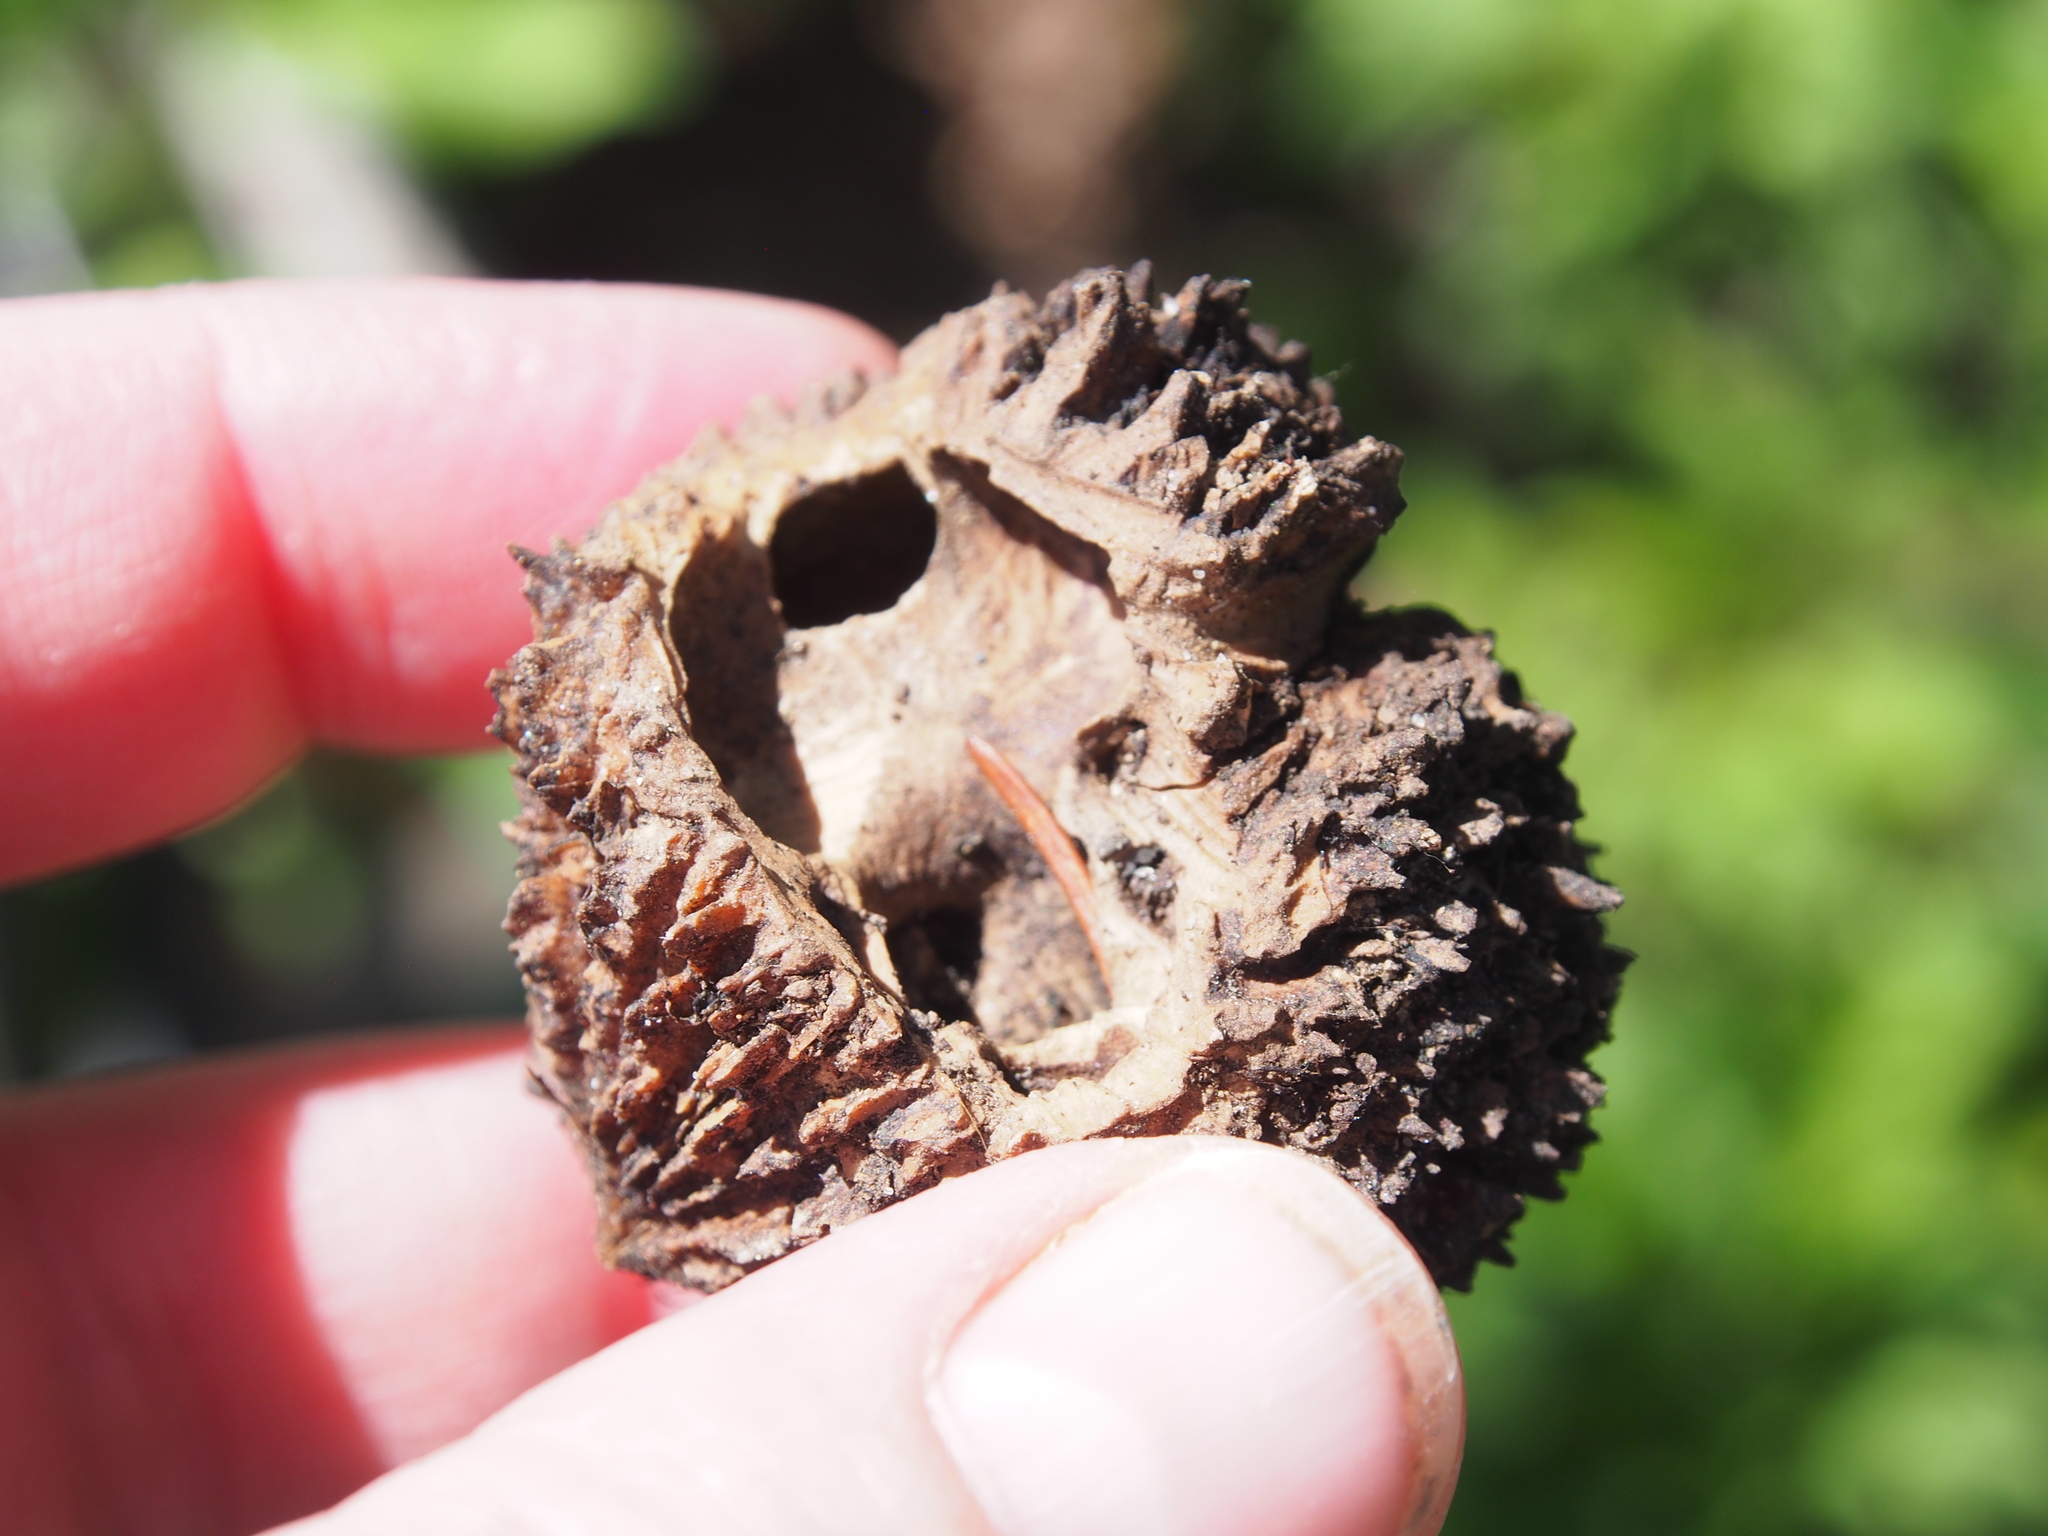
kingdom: Plantae
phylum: Tracheophyta
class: Magnoliopsida
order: Fagales
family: Juglandaceae
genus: Juglans
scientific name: Juglans nigra
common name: Black walnut
